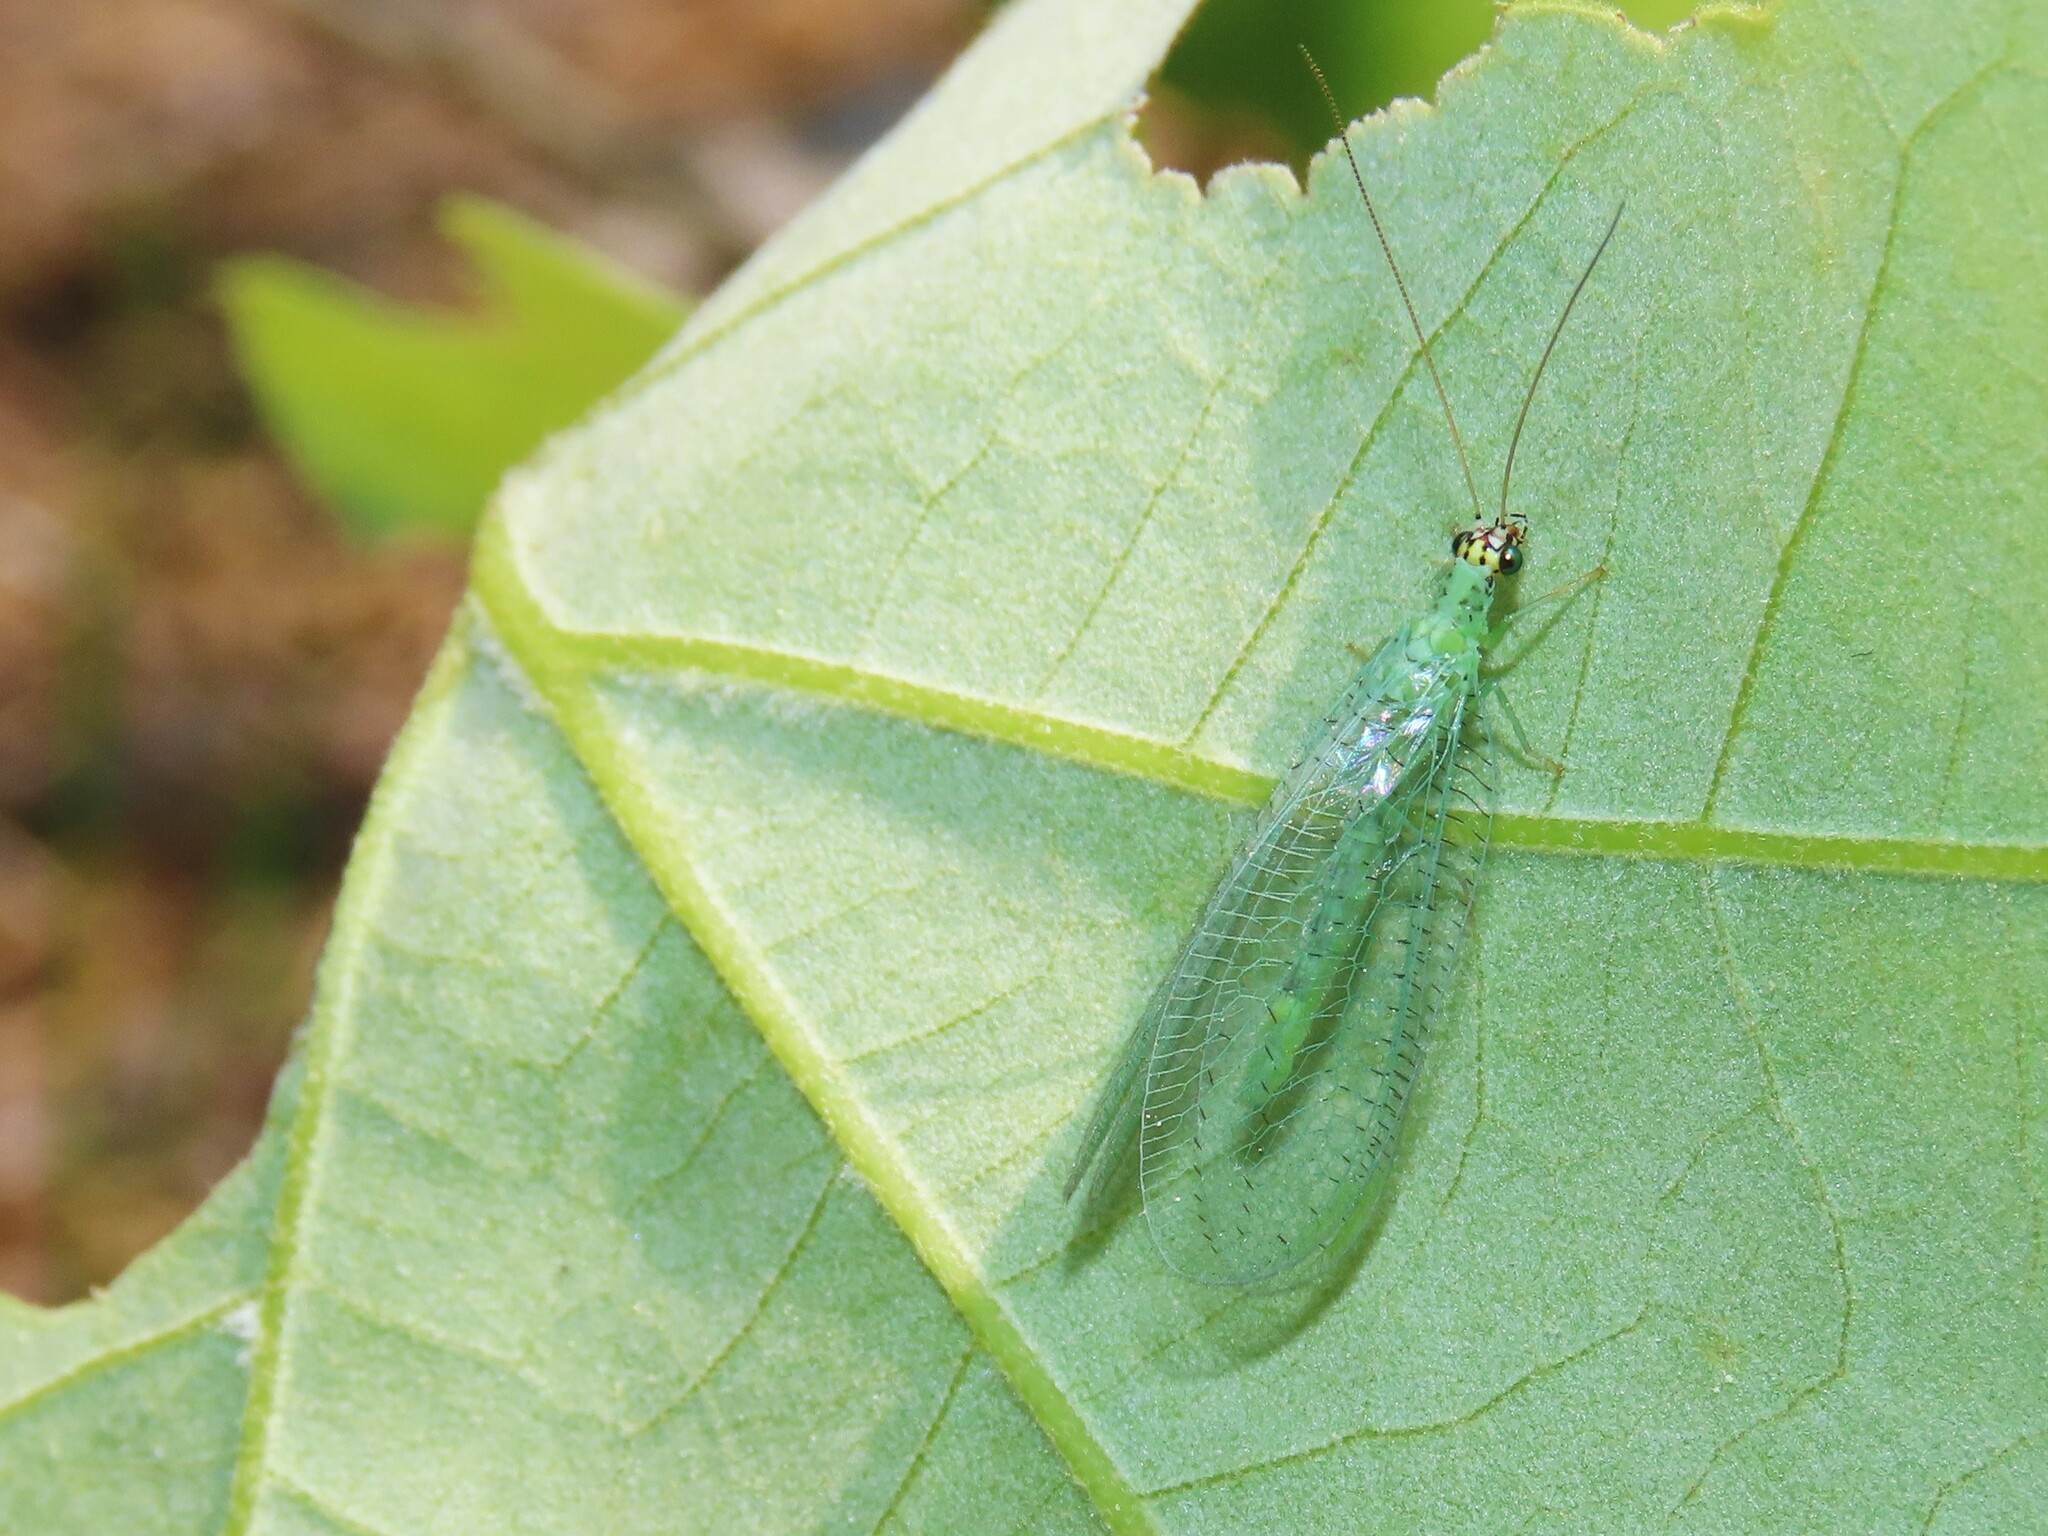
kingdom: Animalia
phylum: Arthropoda
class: Insecta
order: Neuroptera
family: Chrysopidae
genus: Chrysopa
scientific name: Chrysopa oculata
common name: Golden-eyed lacewing
